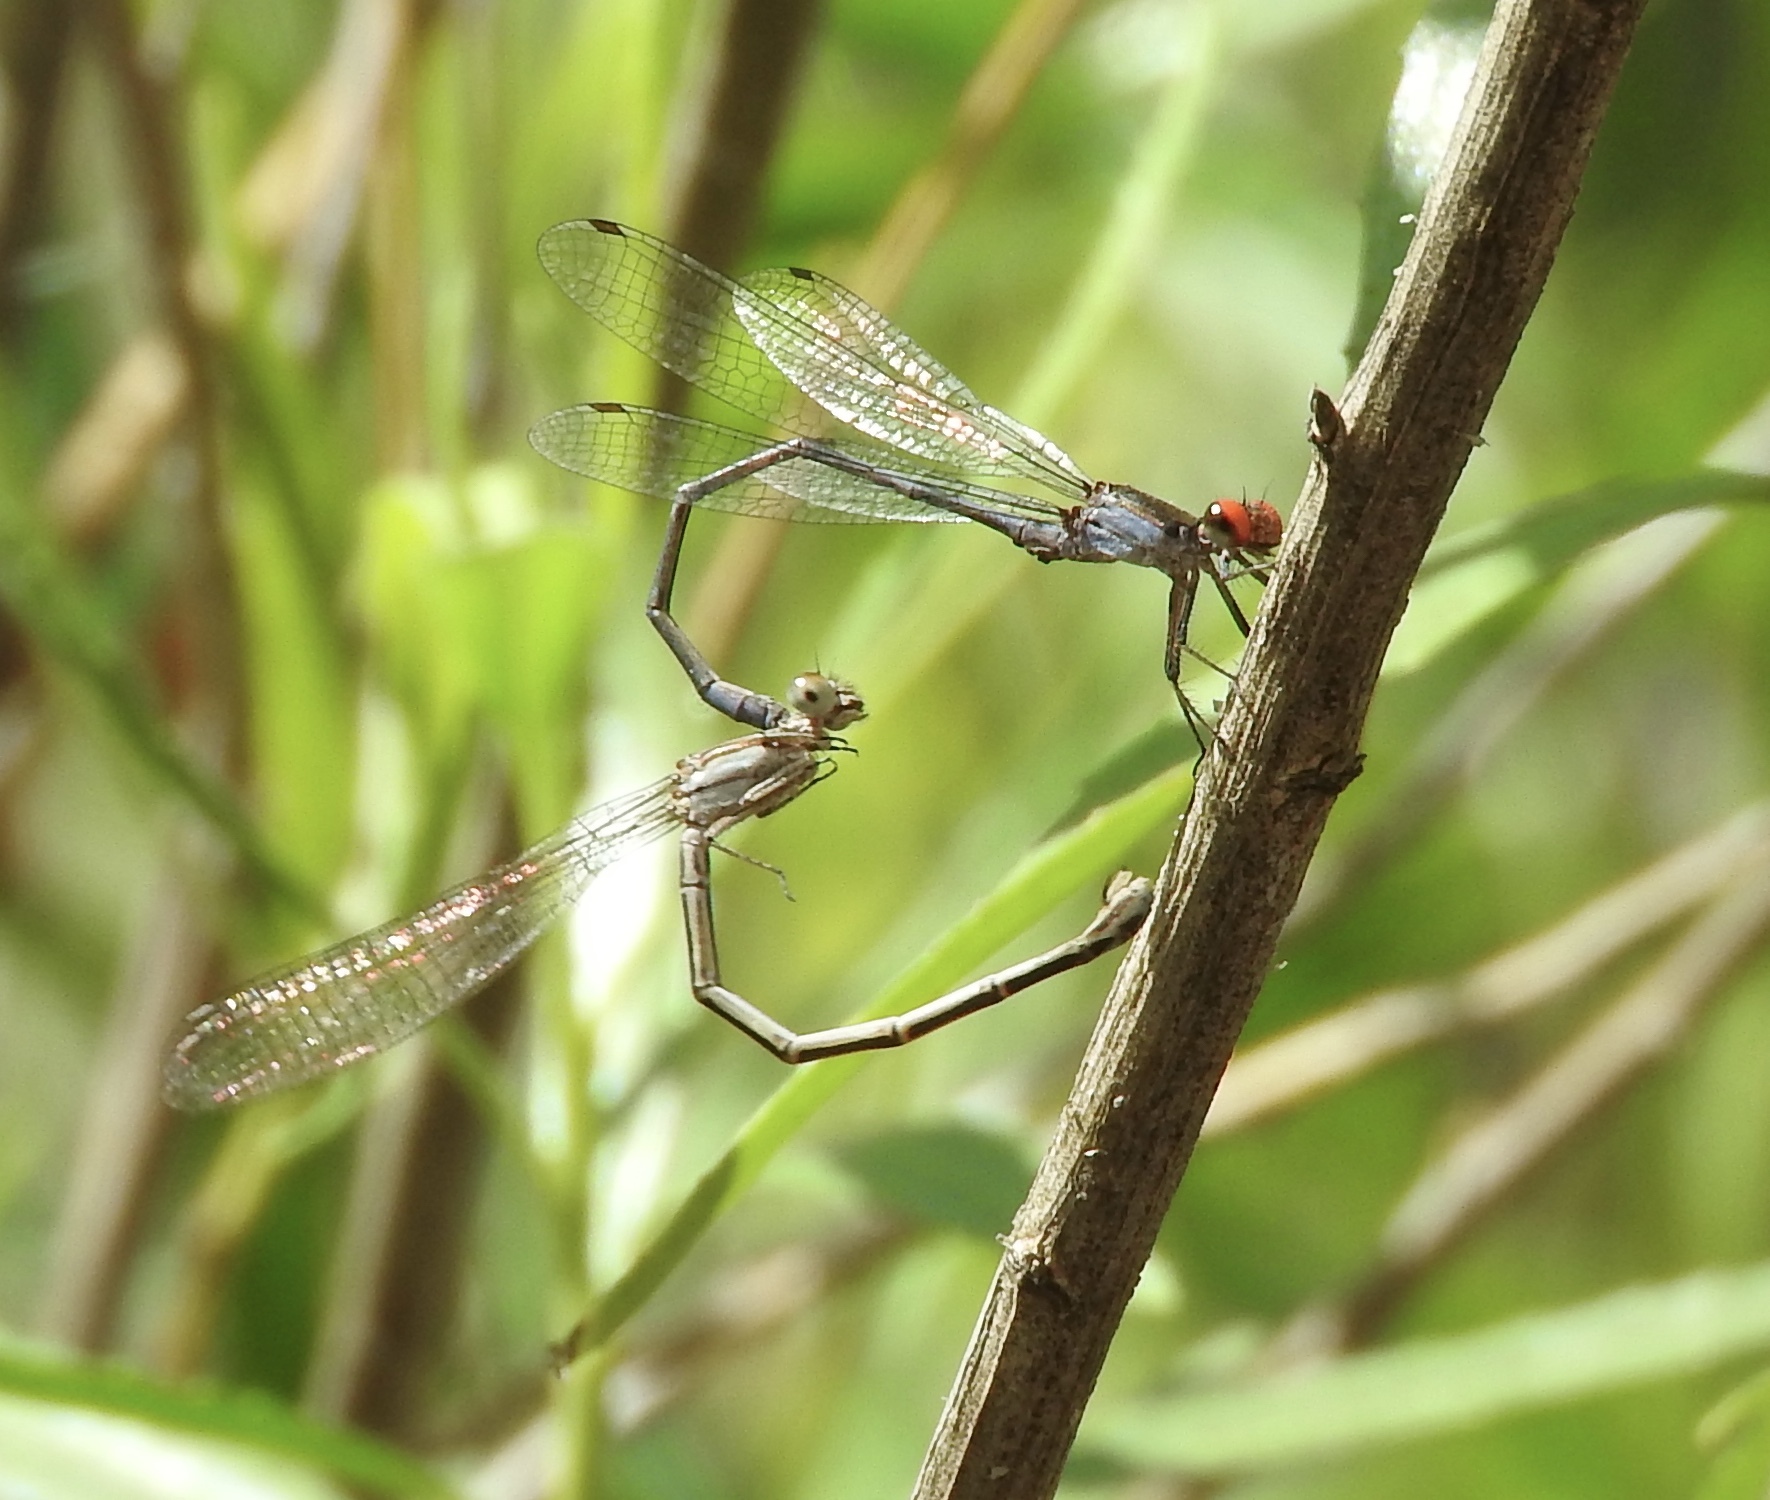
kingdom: Animalia
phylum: Arthropoda
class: Insecta
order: Odonata
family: Coenagrionidae
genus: Argia
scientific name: Argia oenea
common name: Fiery-eyed dancer
